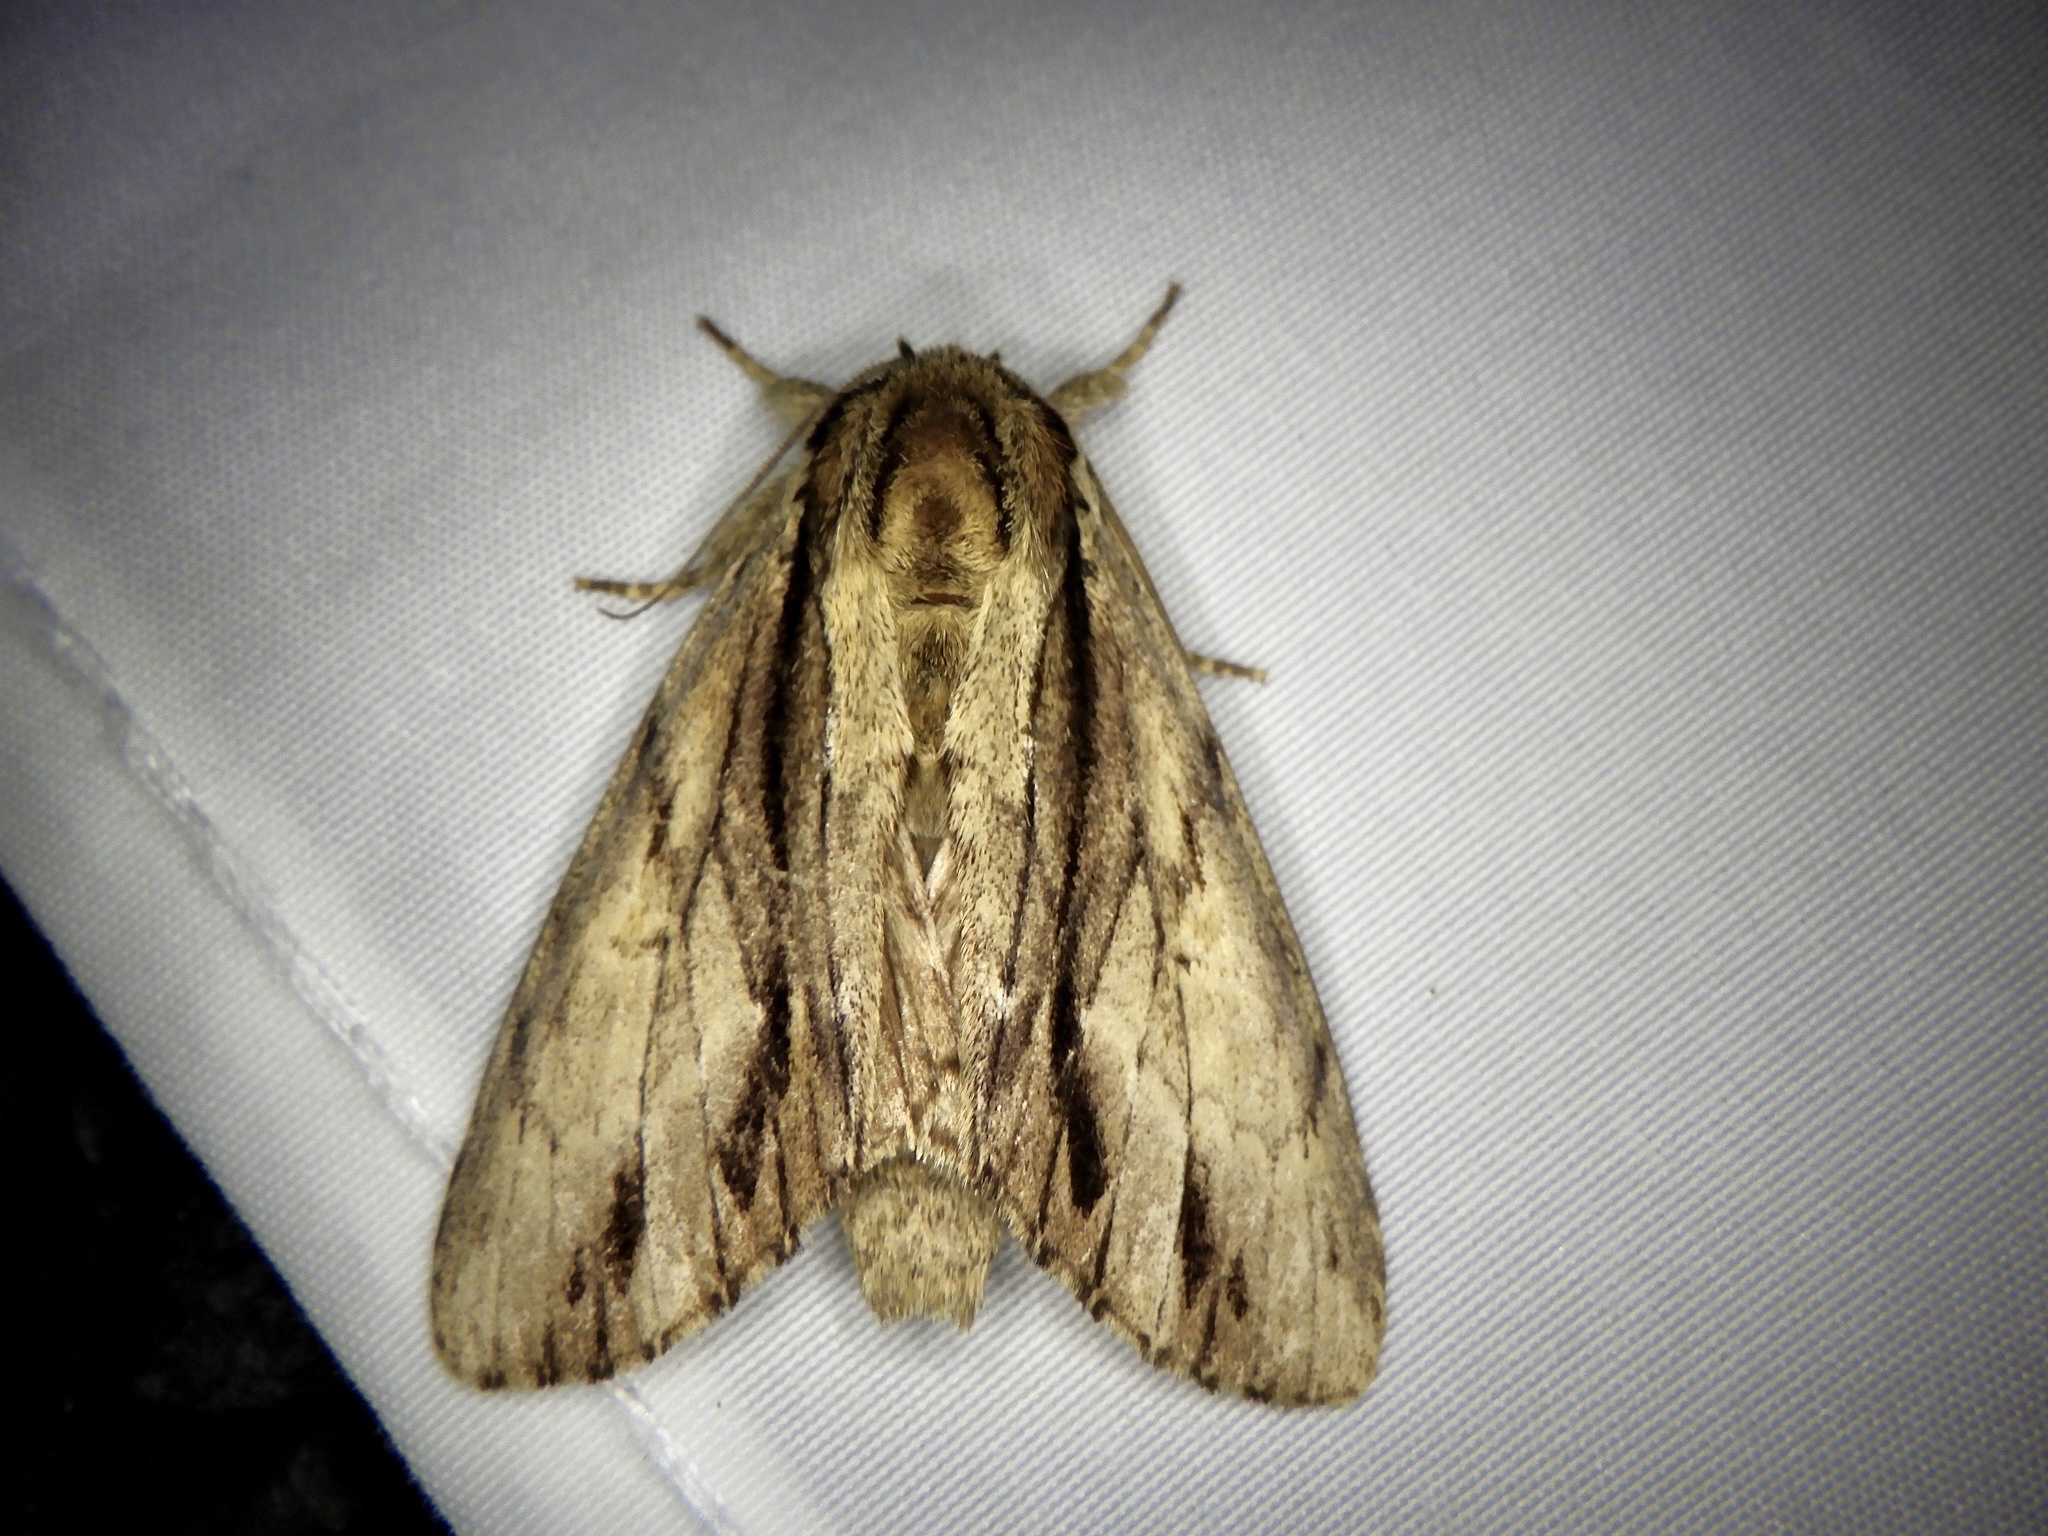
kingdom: Animalia
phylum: Arthropoda
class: Insecta
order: Lepidoptera
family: Notodontidae
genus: Shaka
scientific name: Shaka atrovittatus
